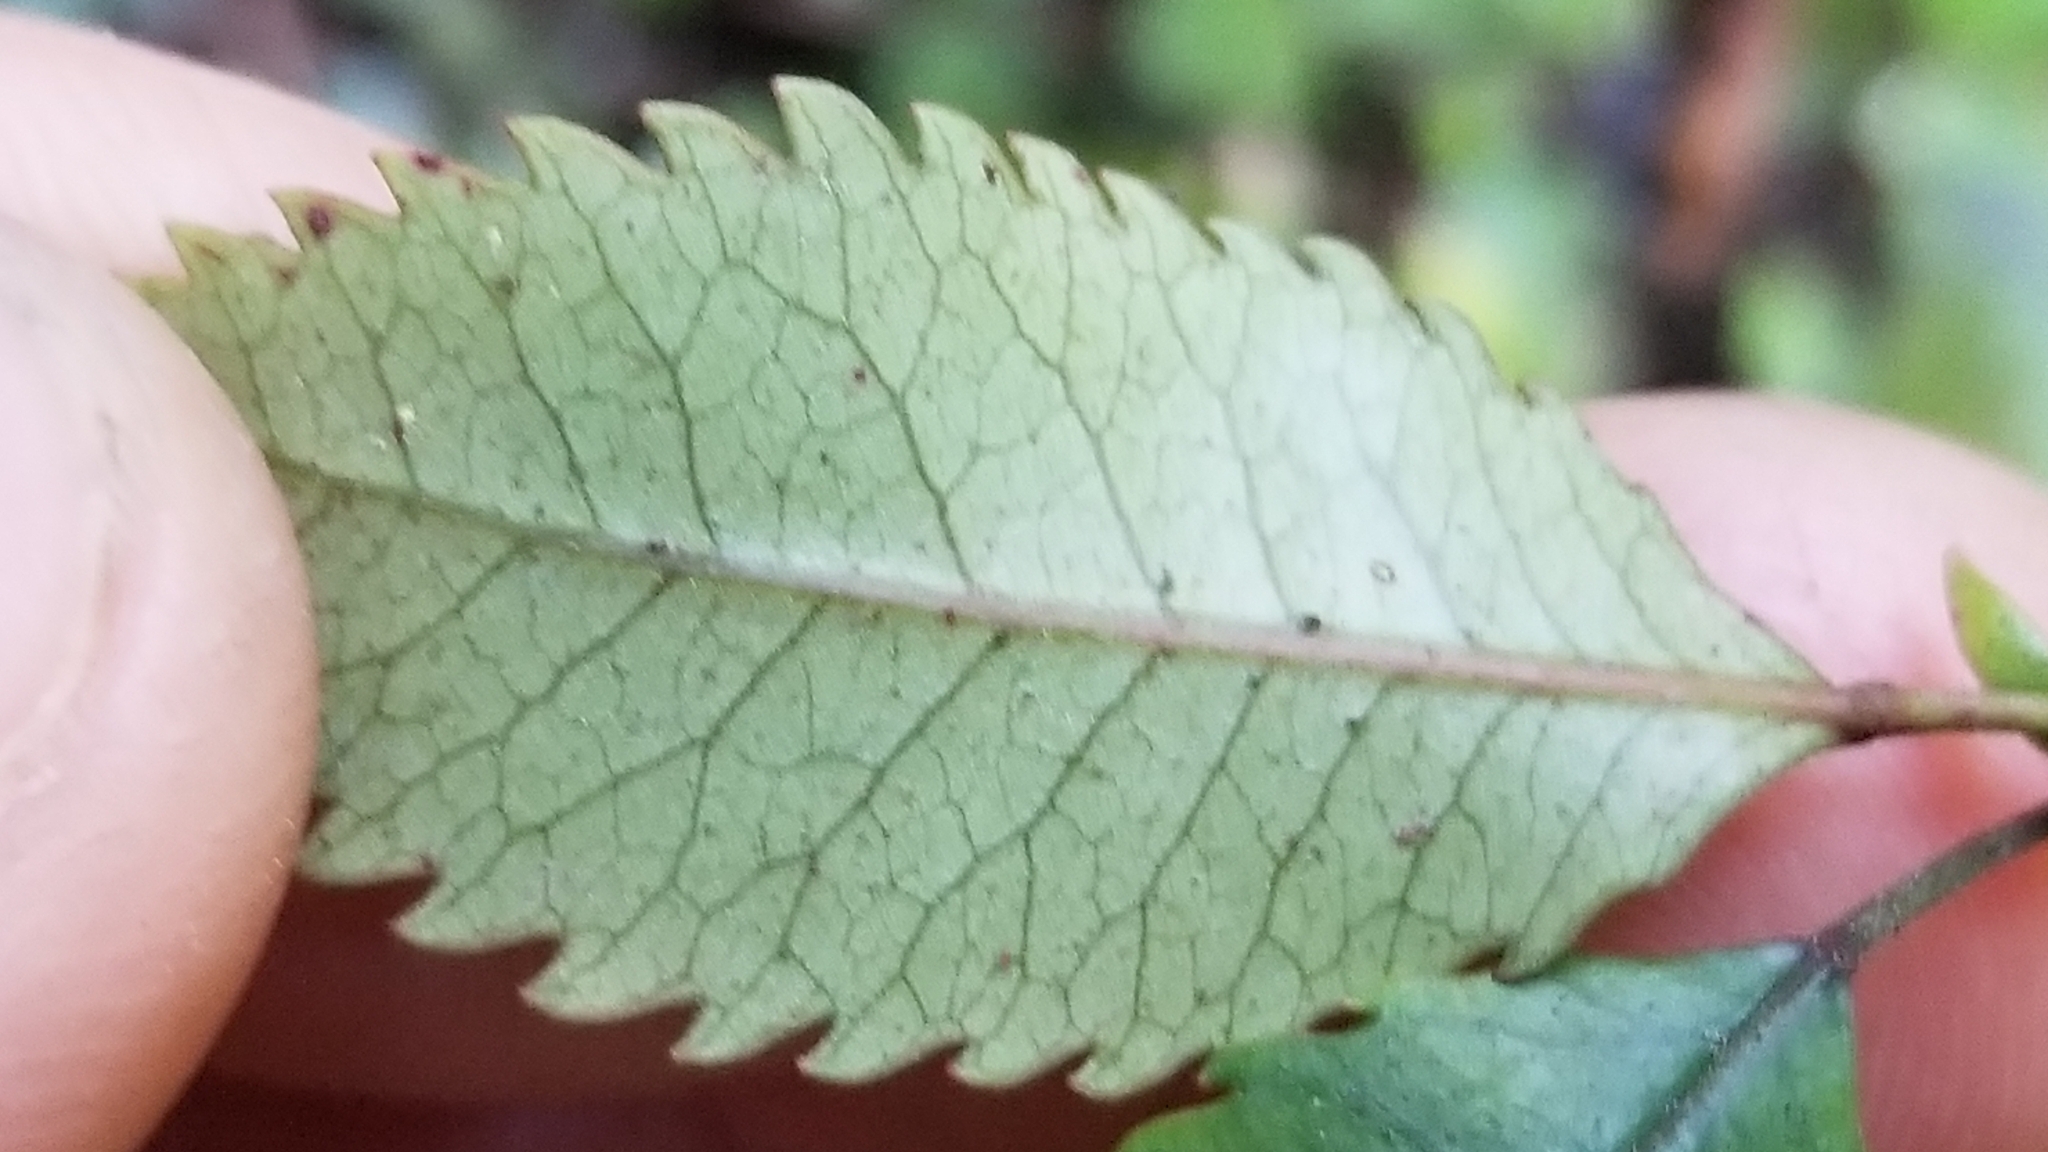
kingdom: Plantae
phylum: Tracheophyta
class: Magnoliopsida
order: Oxalidales
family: Cunoniaceae
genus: Pterophylla
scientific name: Pterophylla racemosa
